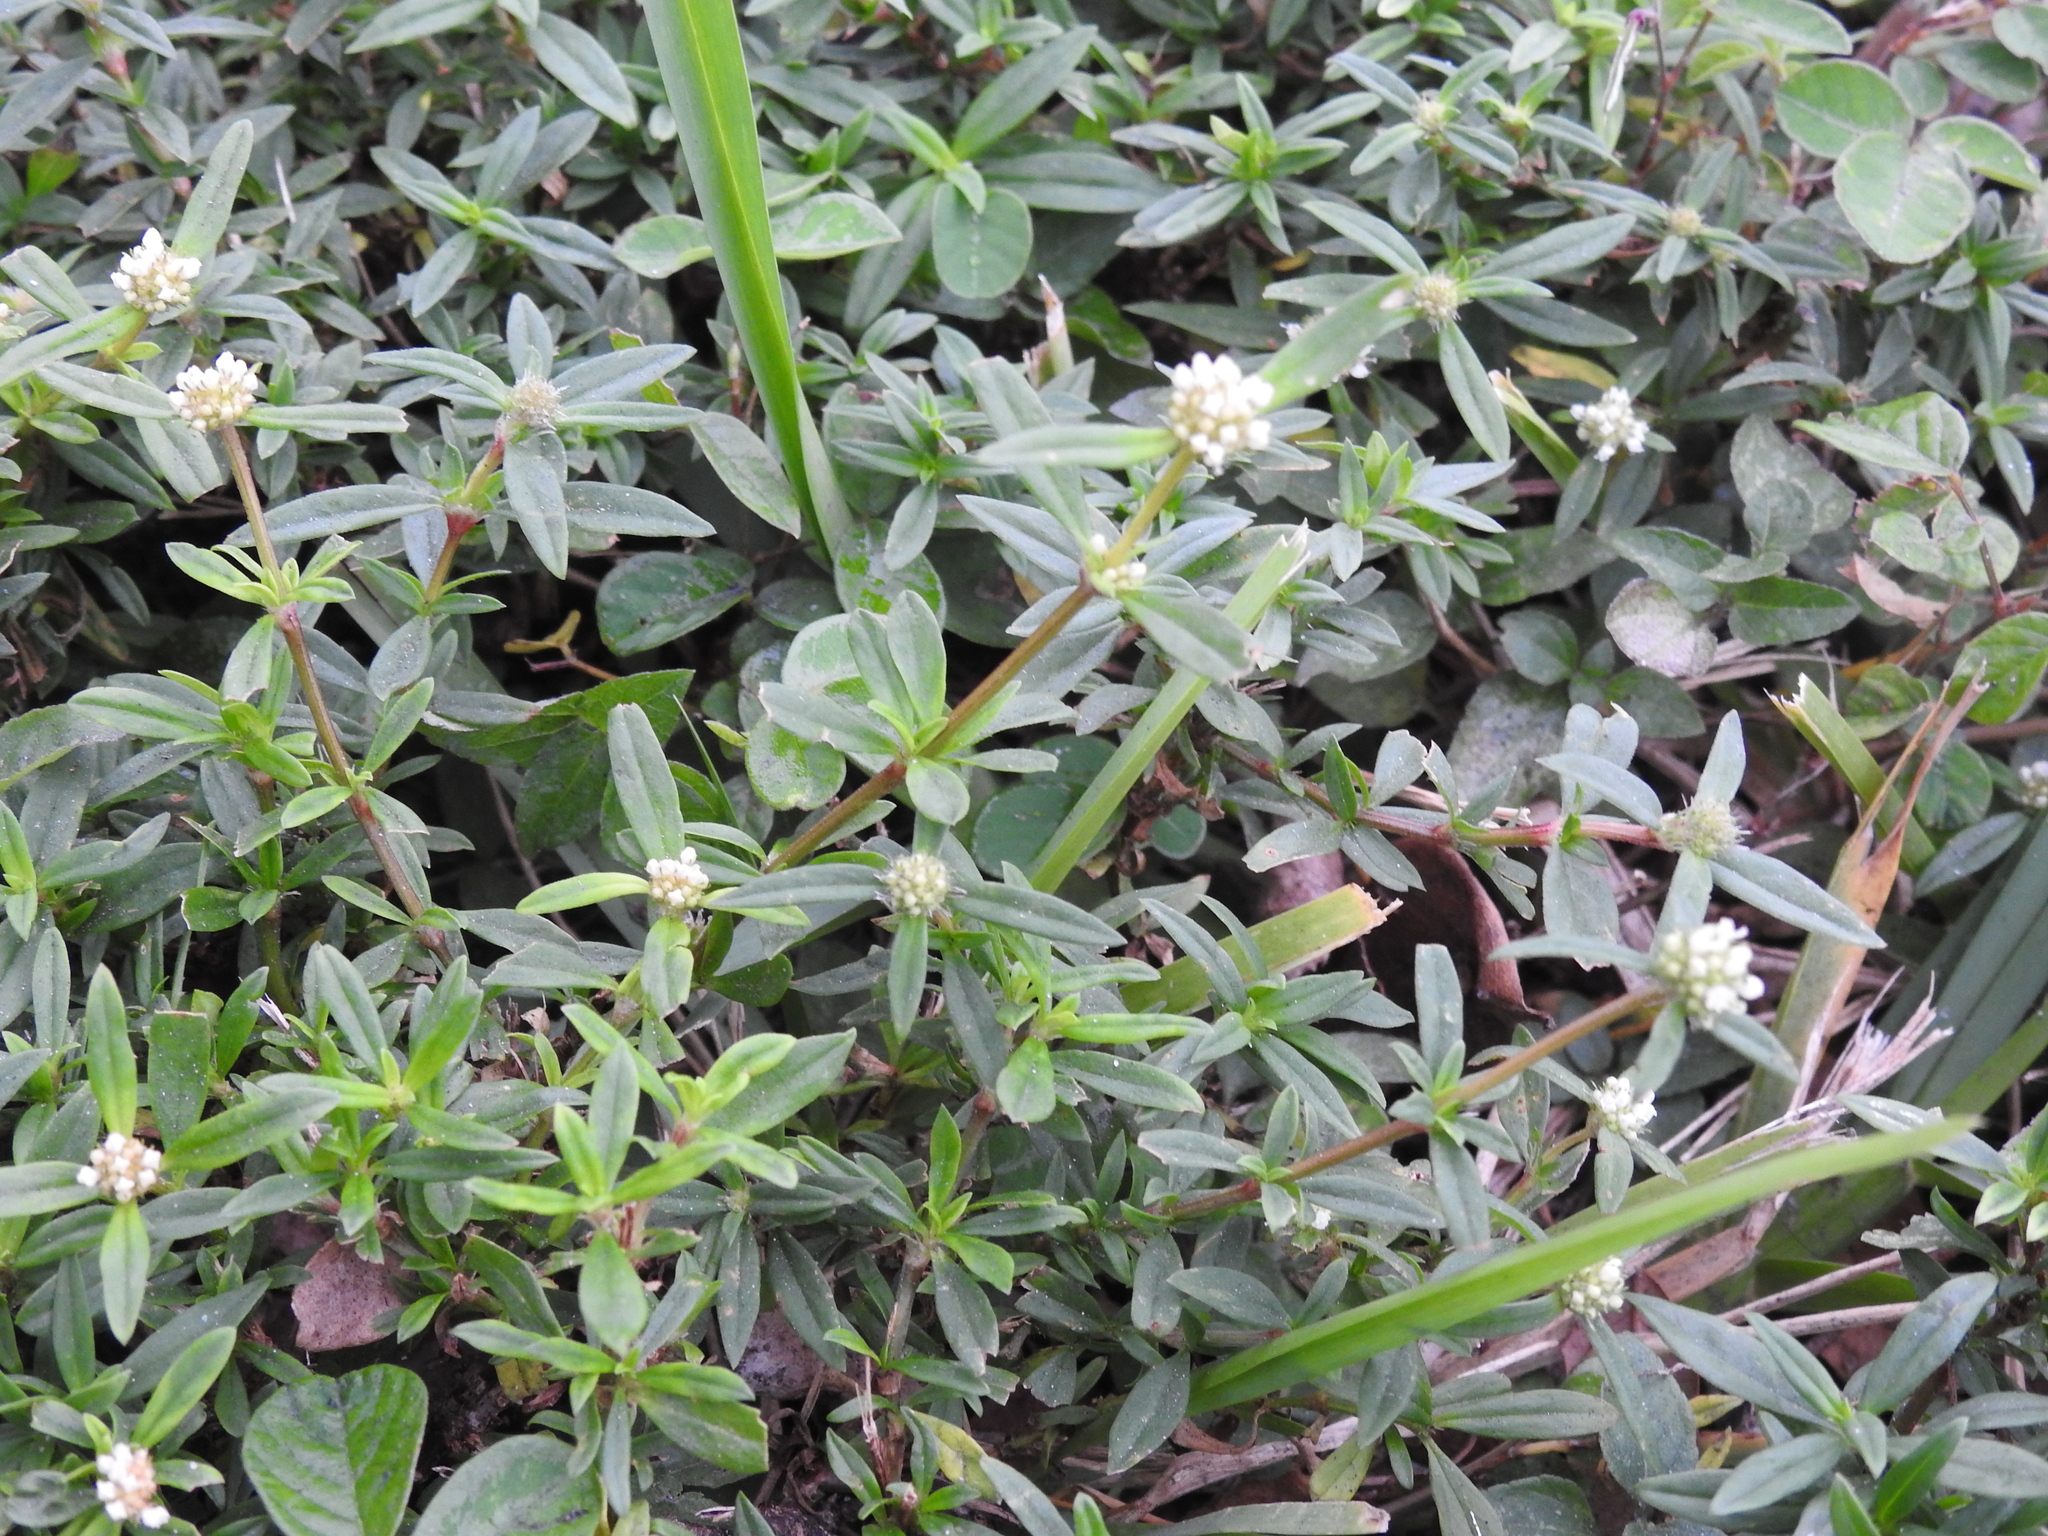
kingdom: Plantae
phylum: Tracheophyta
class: Magnoliopsida
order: Gentianales
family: Rubiaceae
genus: Spermacoce
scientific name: Spermacoce verticillata
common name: Shrubby false buttonweed
